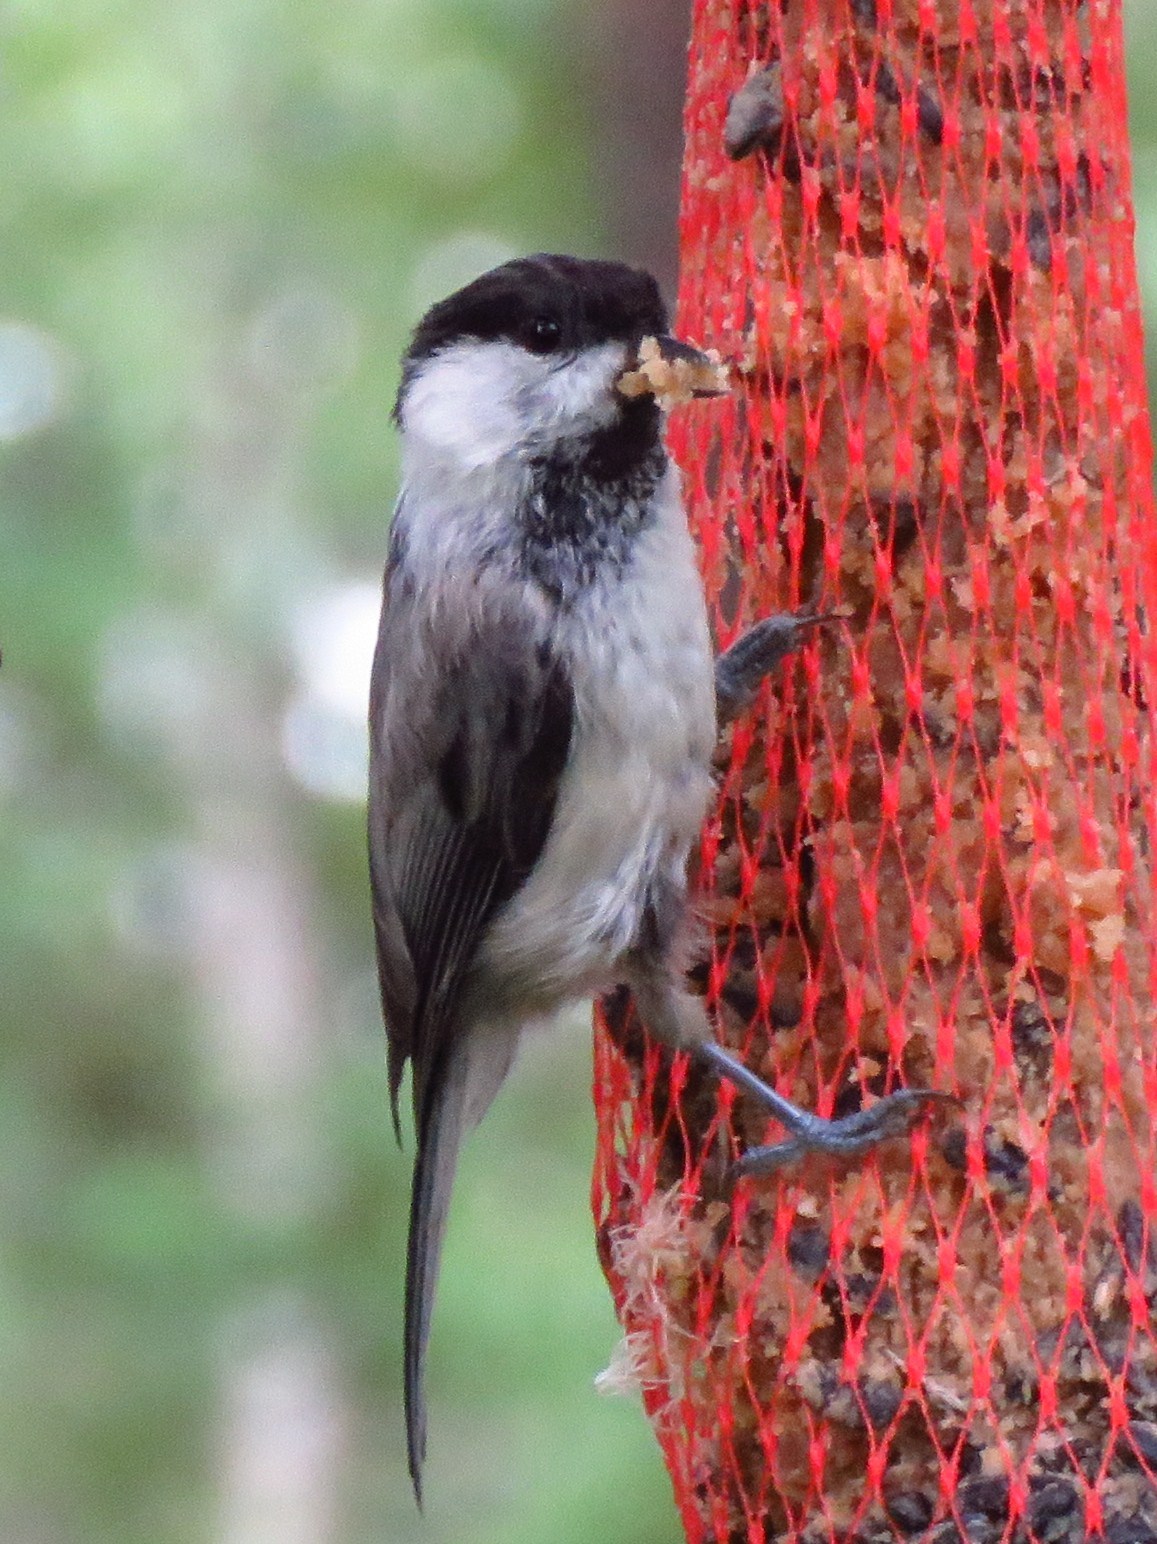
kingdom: Animalia
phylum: Chordata
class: Aves
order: Passeriformes
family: Paridae
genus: Poecile
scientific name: Poecile montanus
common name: Willow tit
